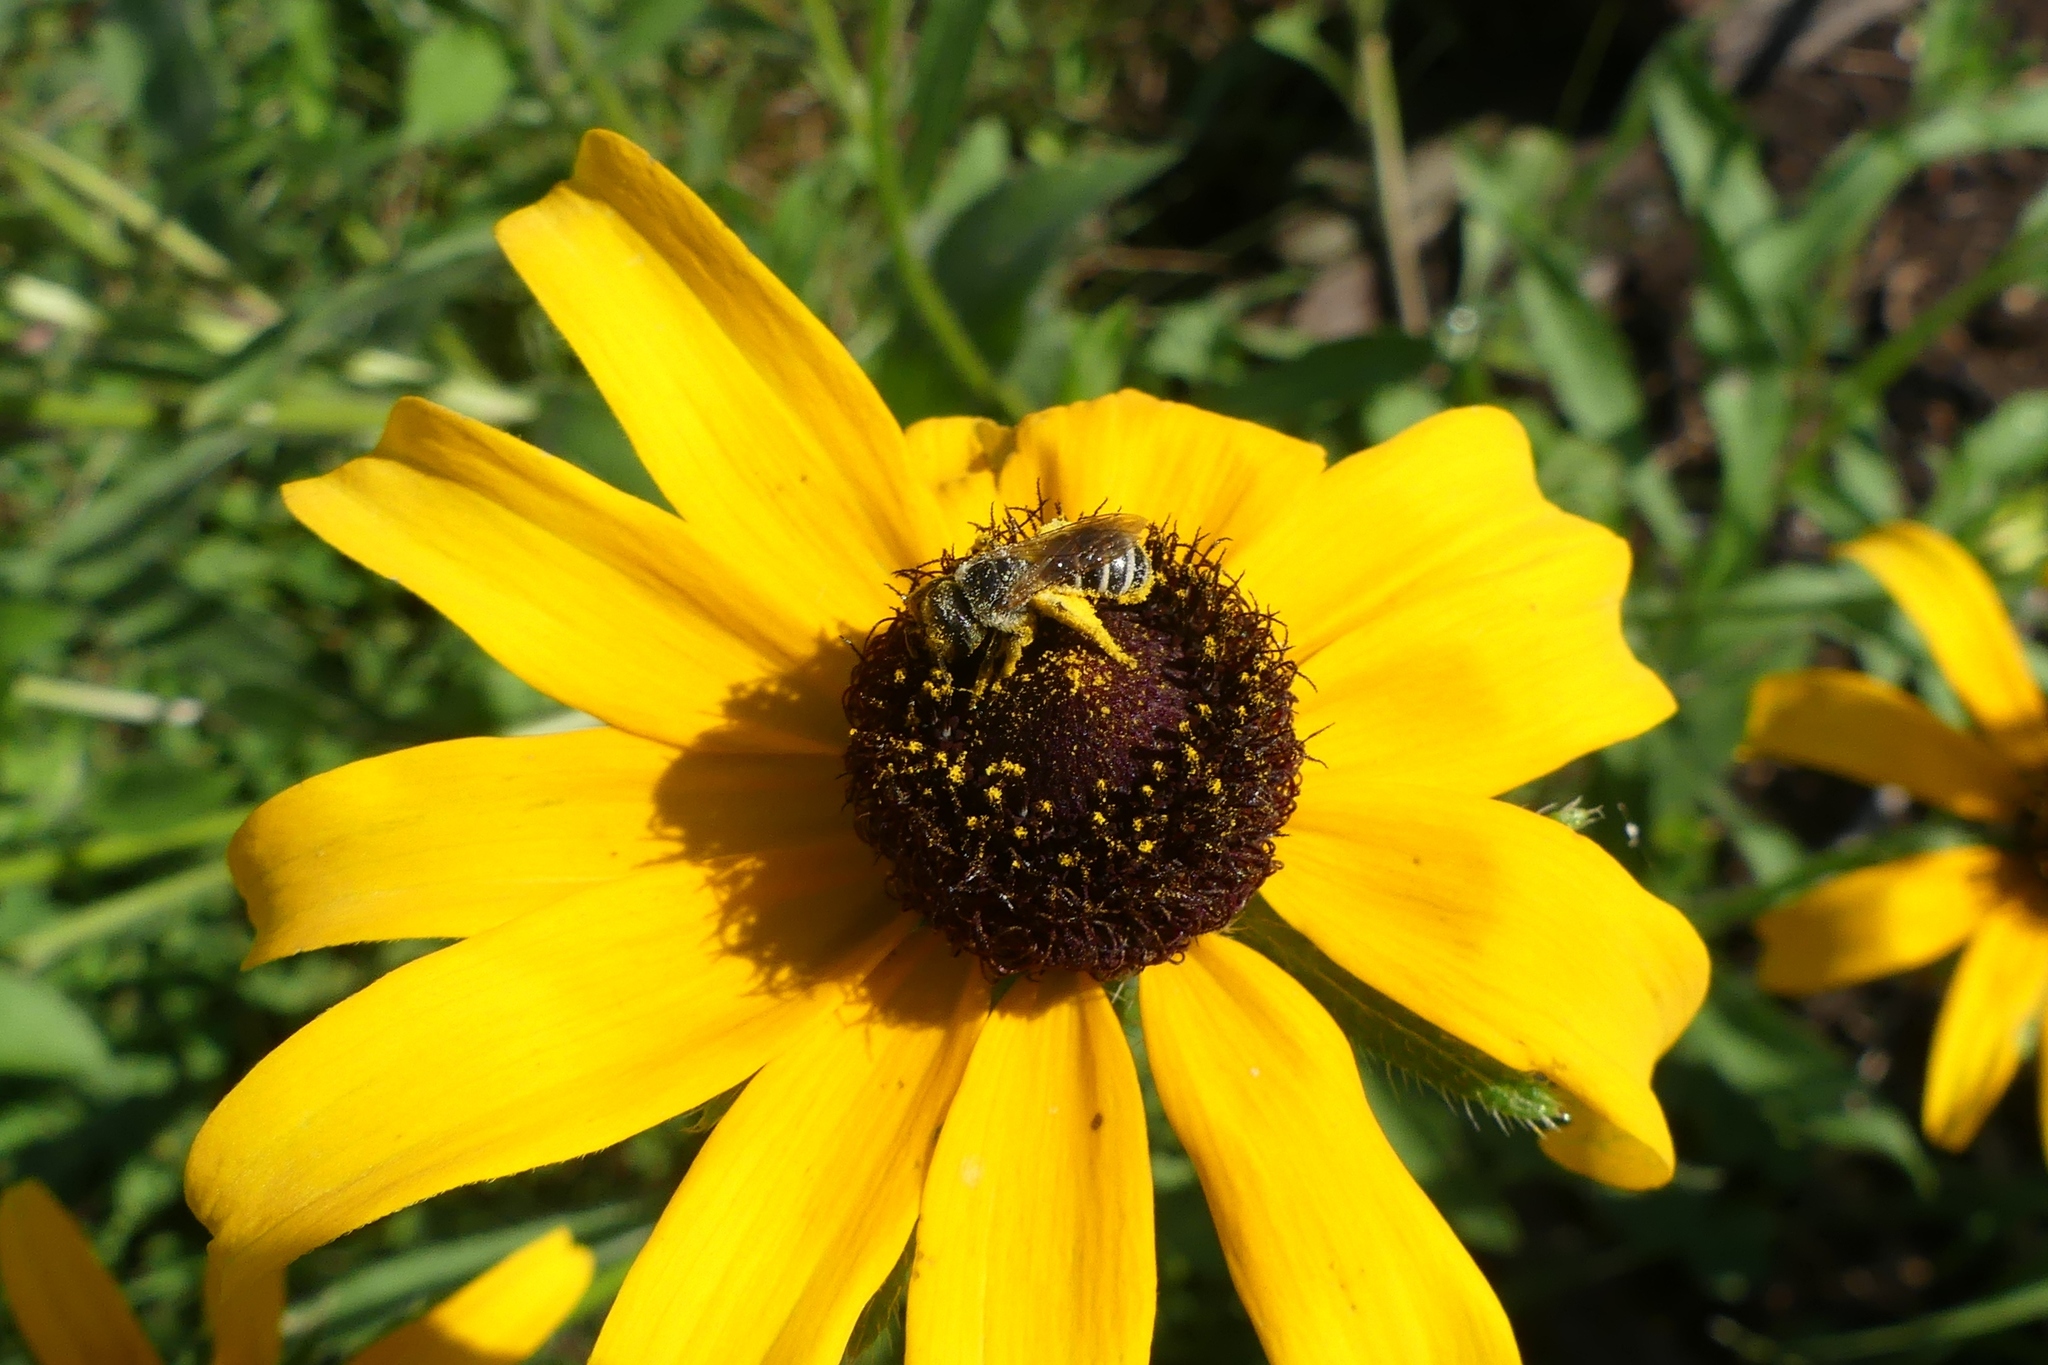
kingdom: Animalia
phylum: Arthropoda
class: Insecta
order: Hymenoptera
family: Halictidae
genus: Halictus
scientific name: Halictus ligatus
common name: Ligated furrow bee
